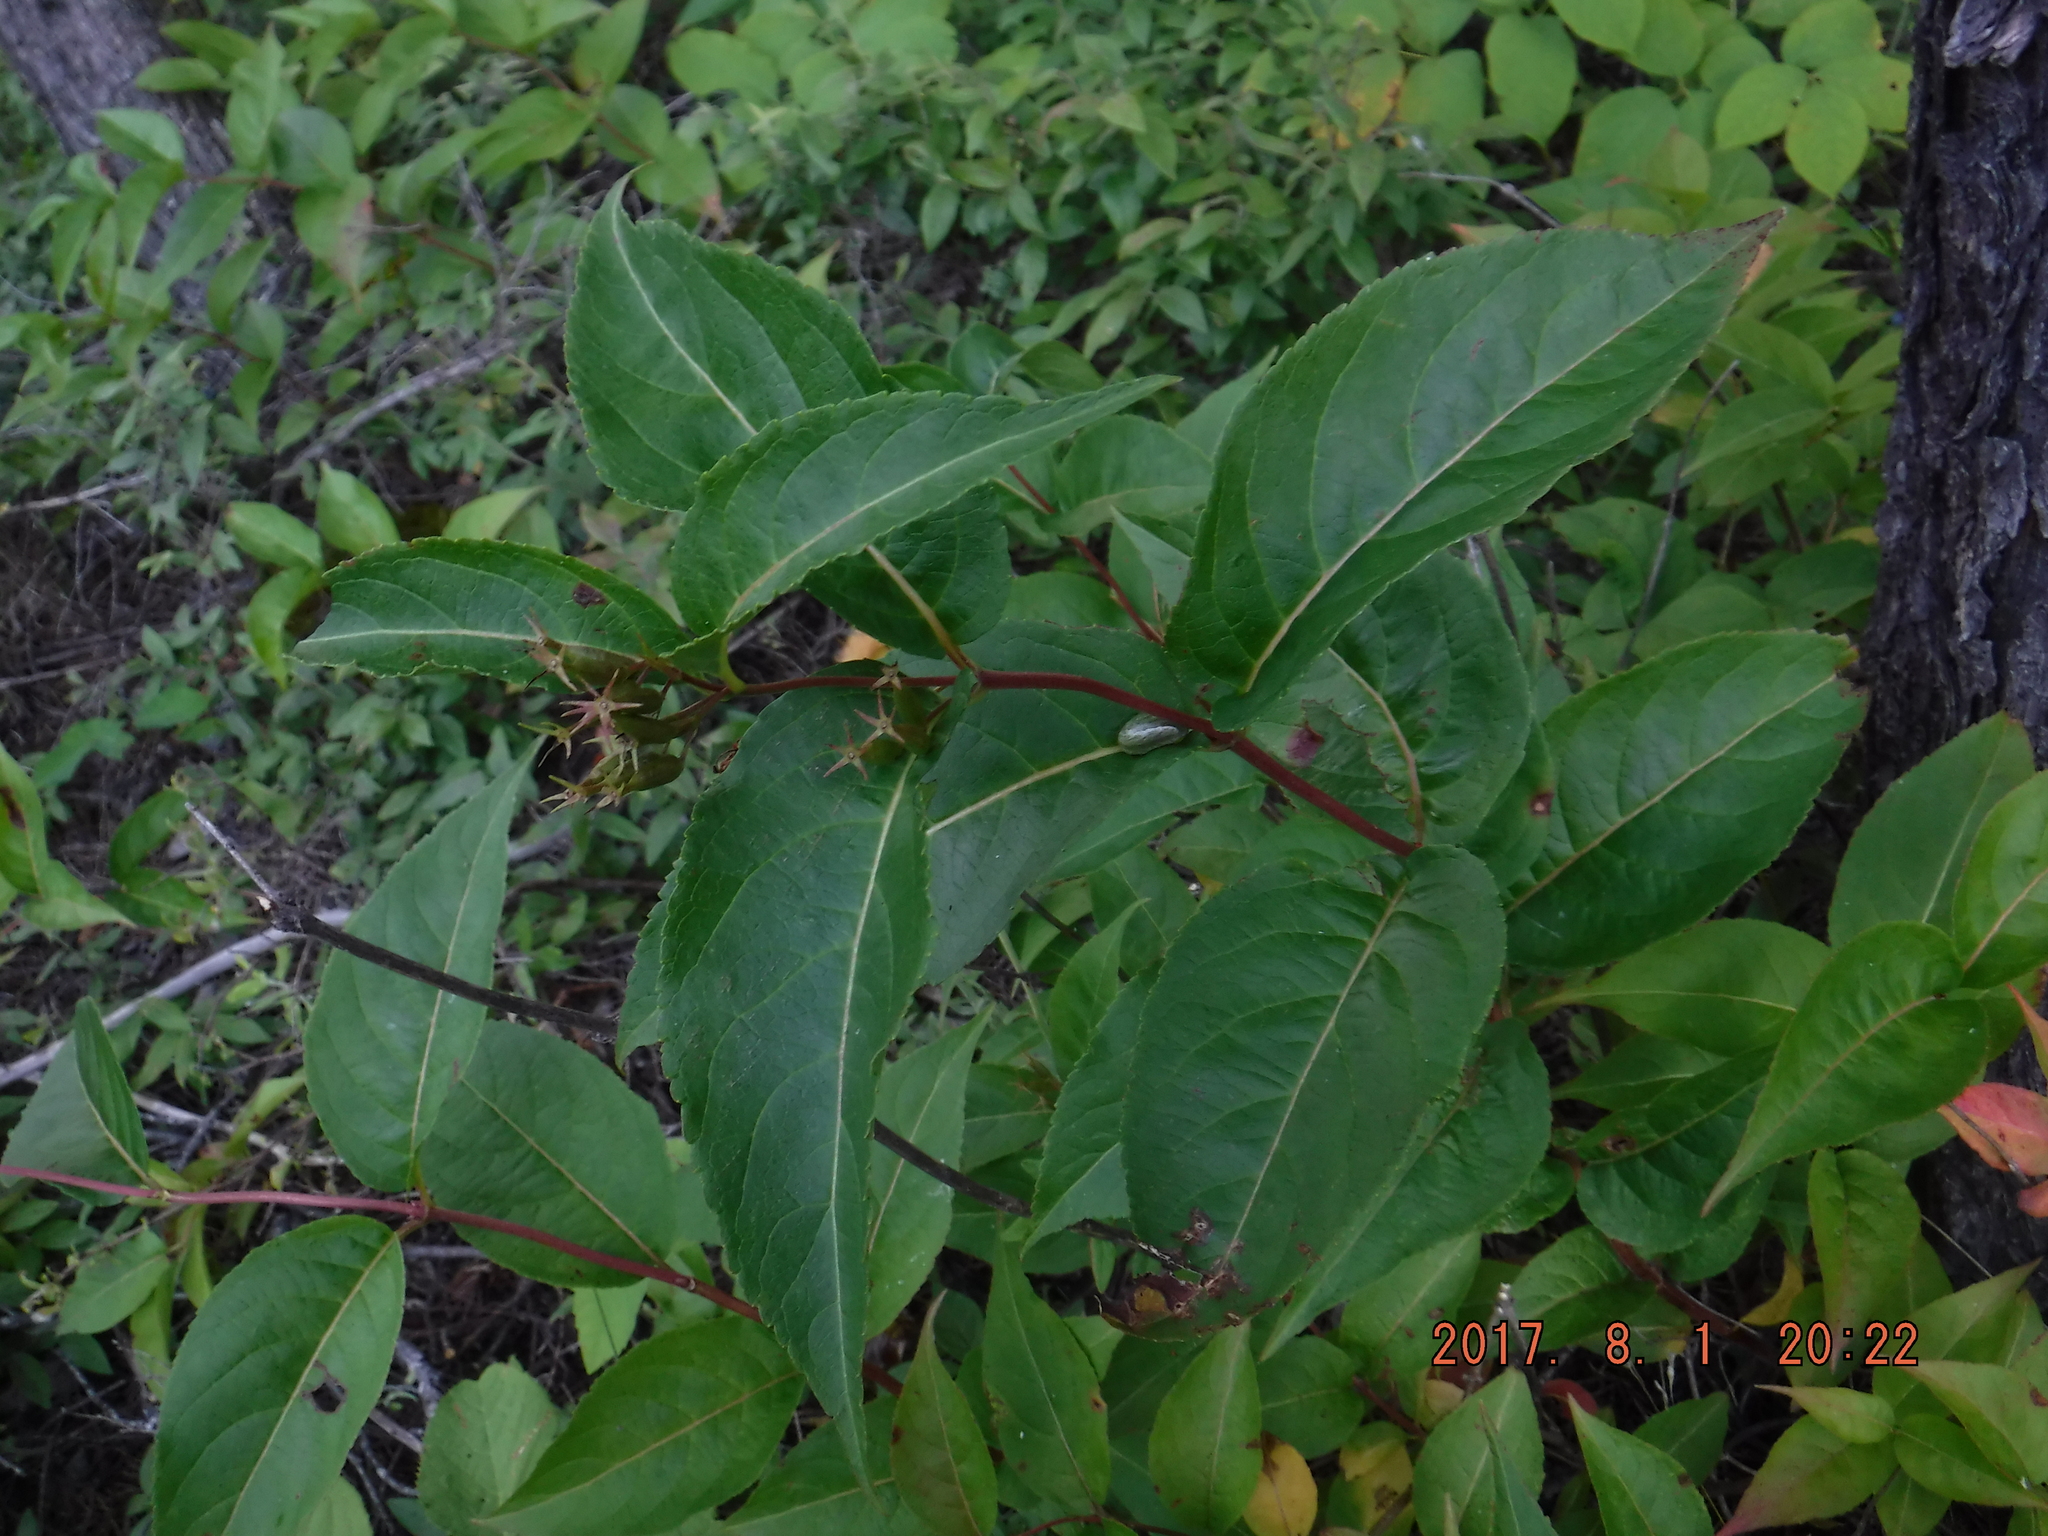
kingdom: Plantae
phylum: Tracheophyta
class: Magnoliopsida
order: Dipsacales
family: Caprifoliaceae
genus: Diervilla
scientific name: Diervilla lonicera
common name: Bush-honeysuckle
